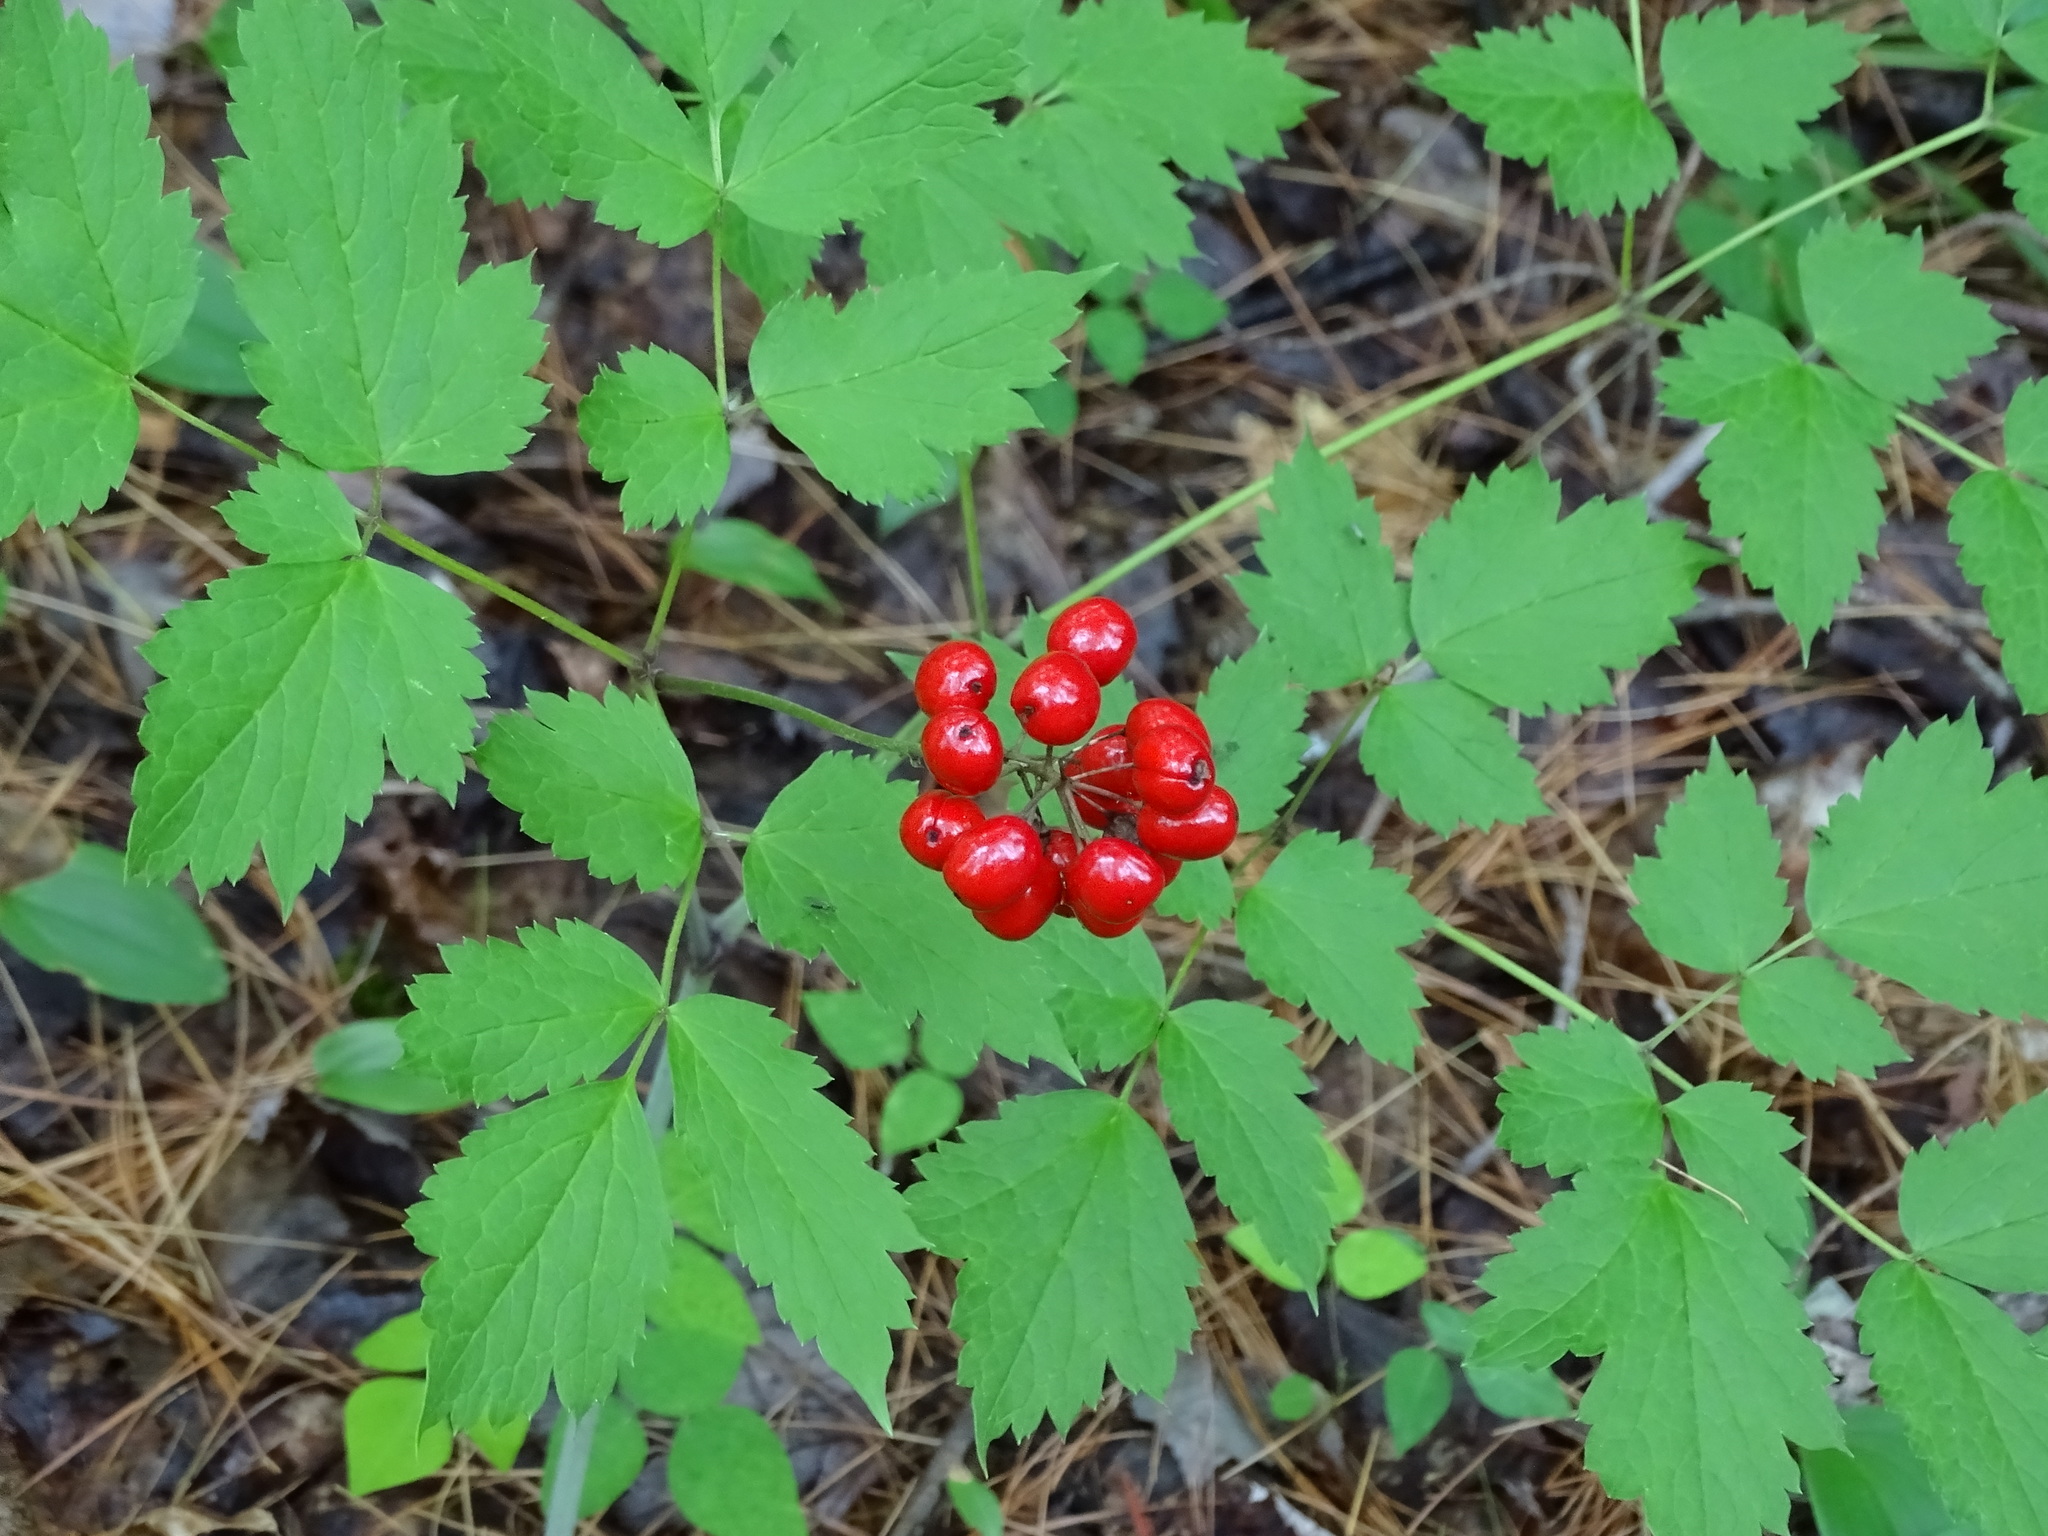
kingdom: Plantae
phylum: Tracheophyta
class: Magnoliopsida
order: Ranunculales
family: Ranunculaceae
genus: Actaea
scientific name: Actaea rubra
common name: Red baneberry
